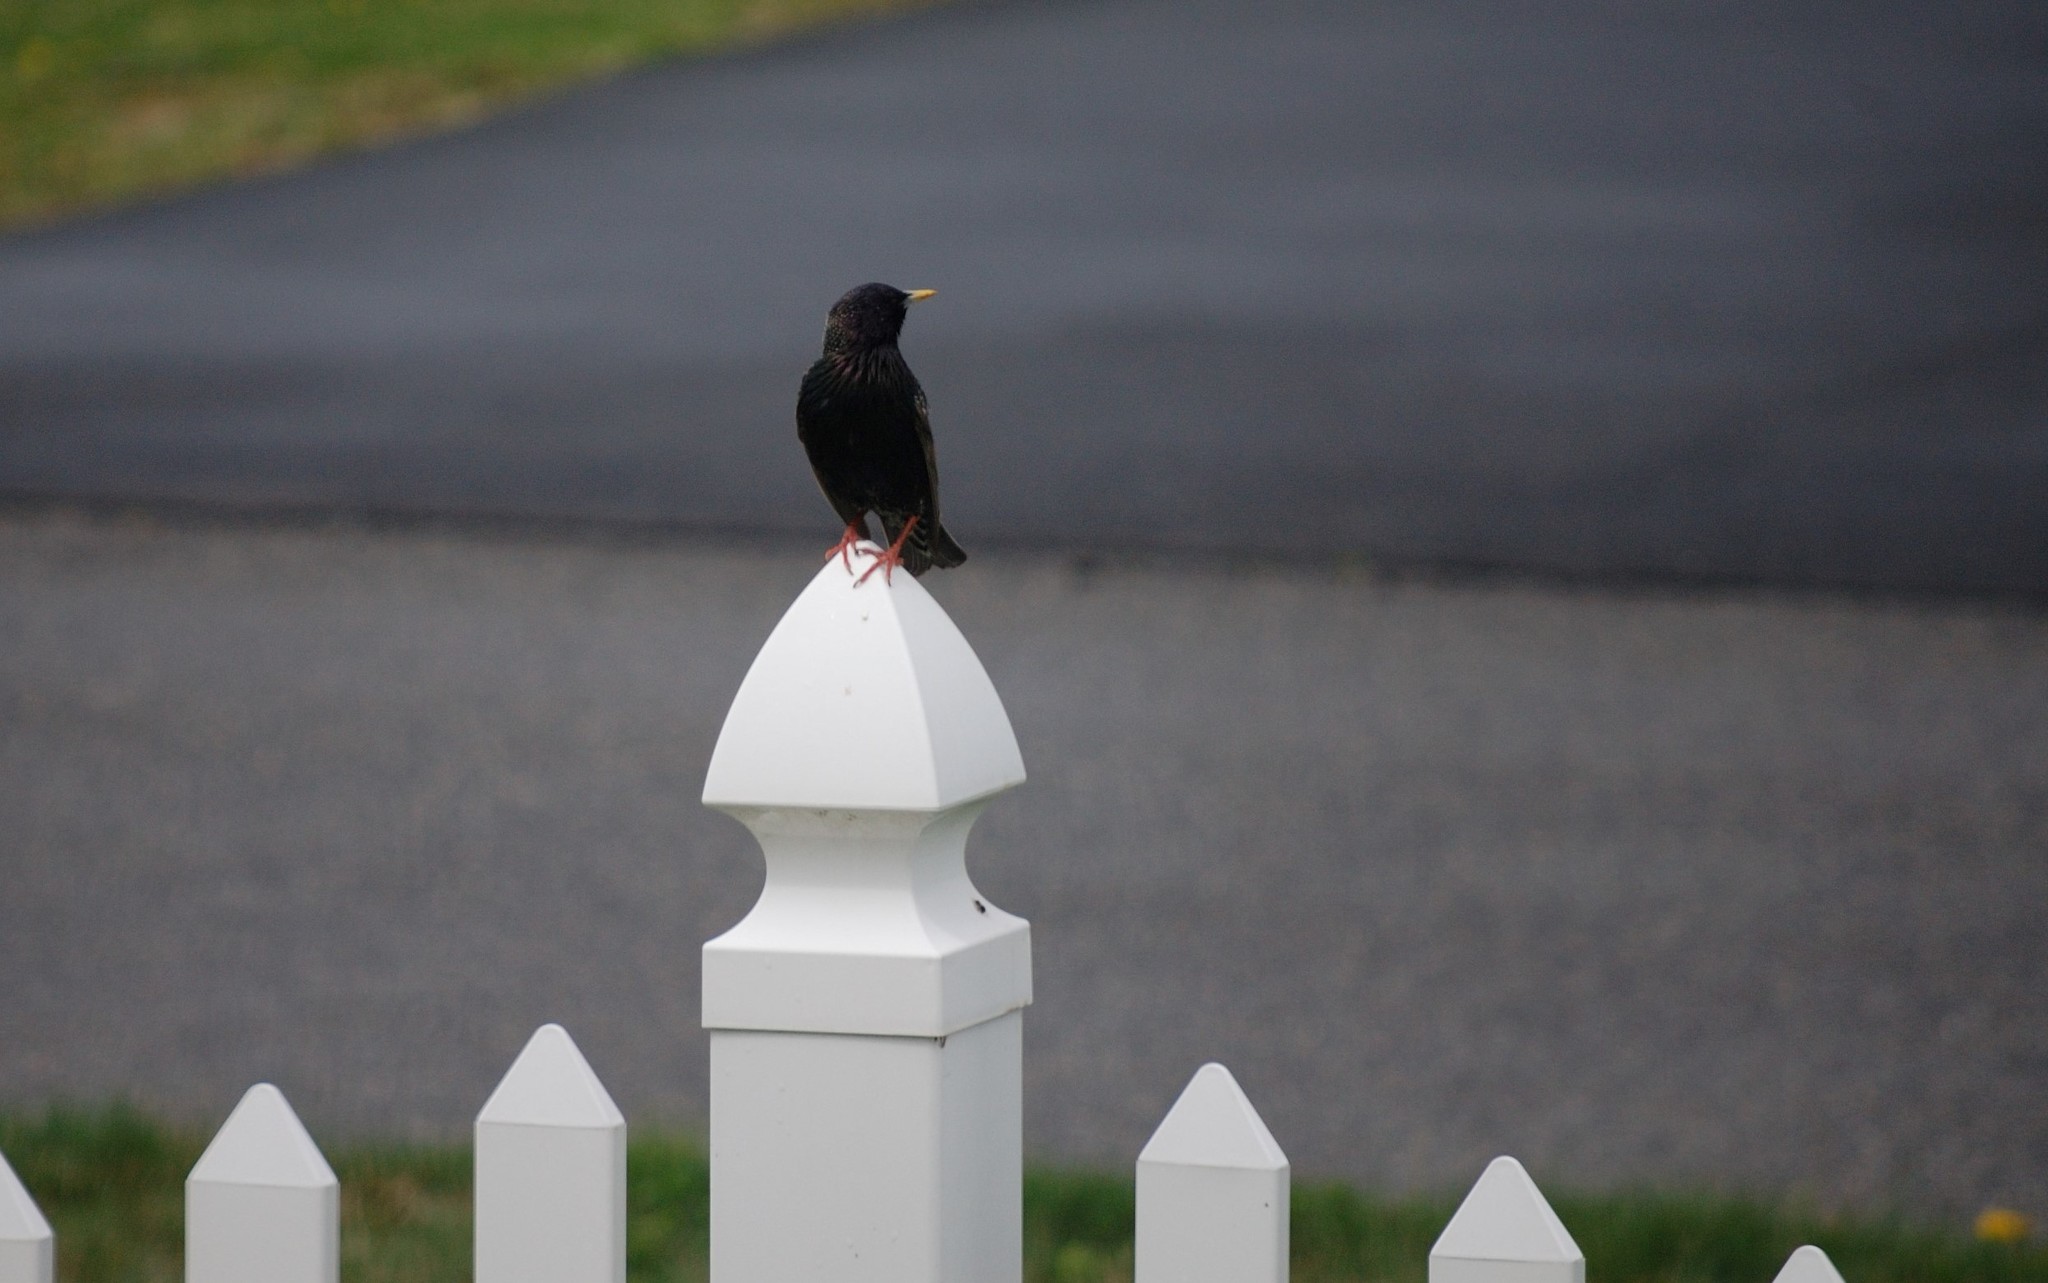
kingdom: Animalia
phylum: Chordata
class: Aves
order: Passeriformes
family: Sturnidae
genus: Sturnus
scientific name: Sturnus vulgaris
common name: Common starling
